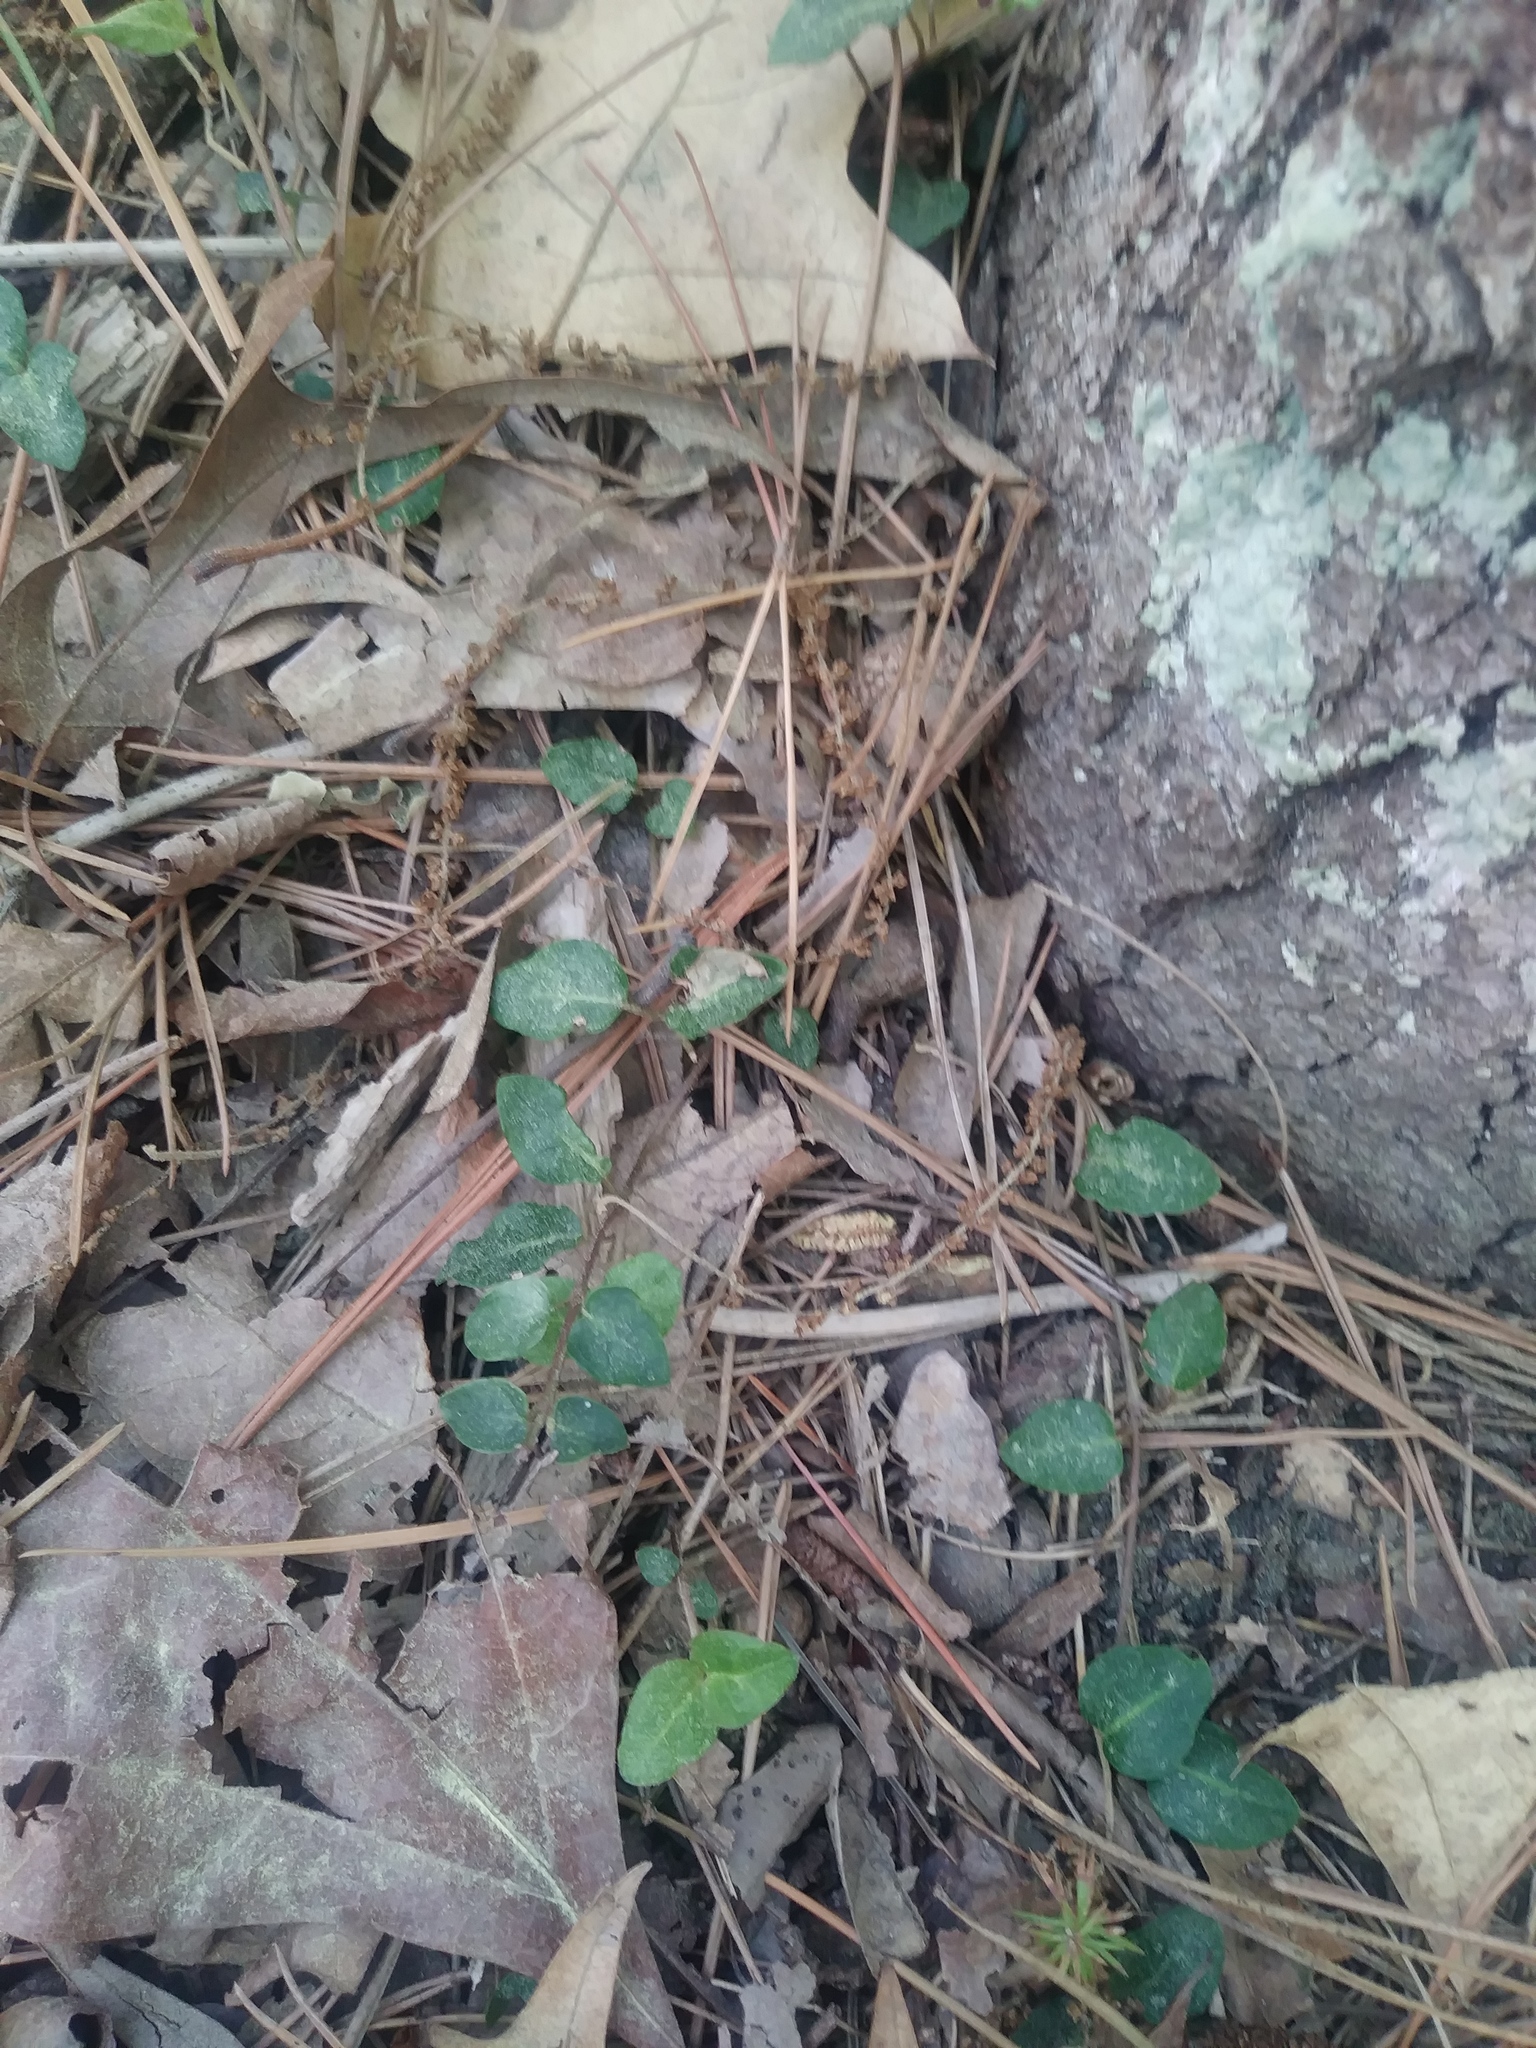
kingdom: Plantae
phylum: Tracheophyta
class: Magnoliopsida
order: Gentianales
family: Rubiaceae
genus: Mitchella
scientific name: Mitchella repens
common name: Partridge-berry
